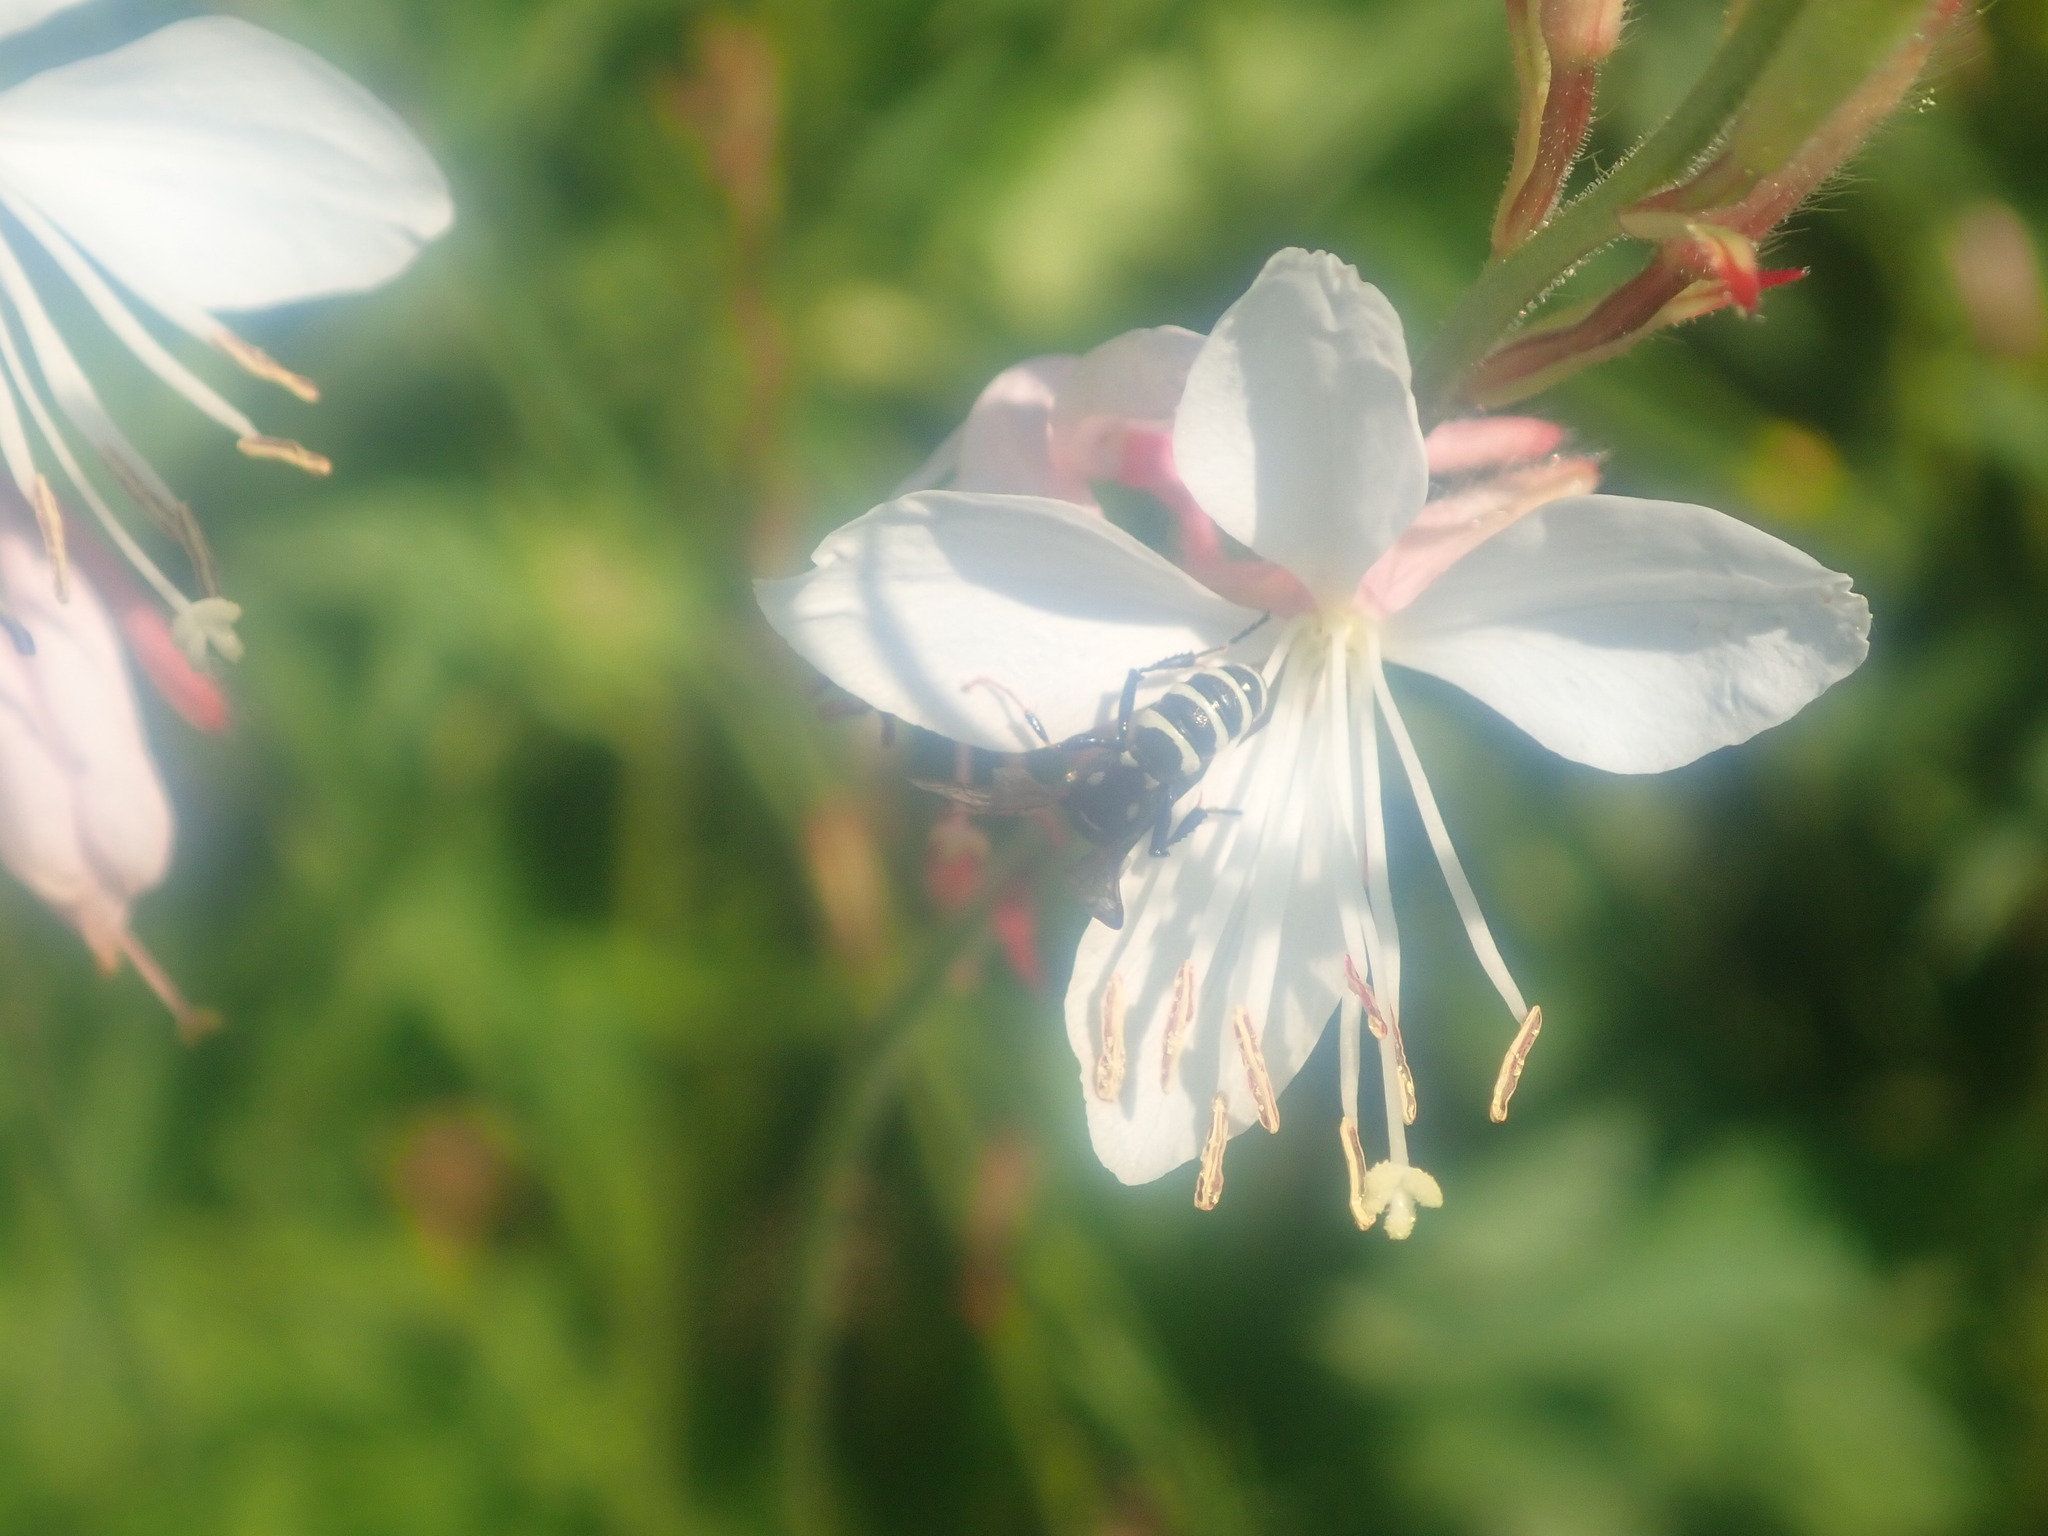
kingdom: Animalia
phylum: Arthropoda
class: Insecta
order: Hymenoptera
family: Crabronidae
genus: Cerceris
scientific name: Cerceris
